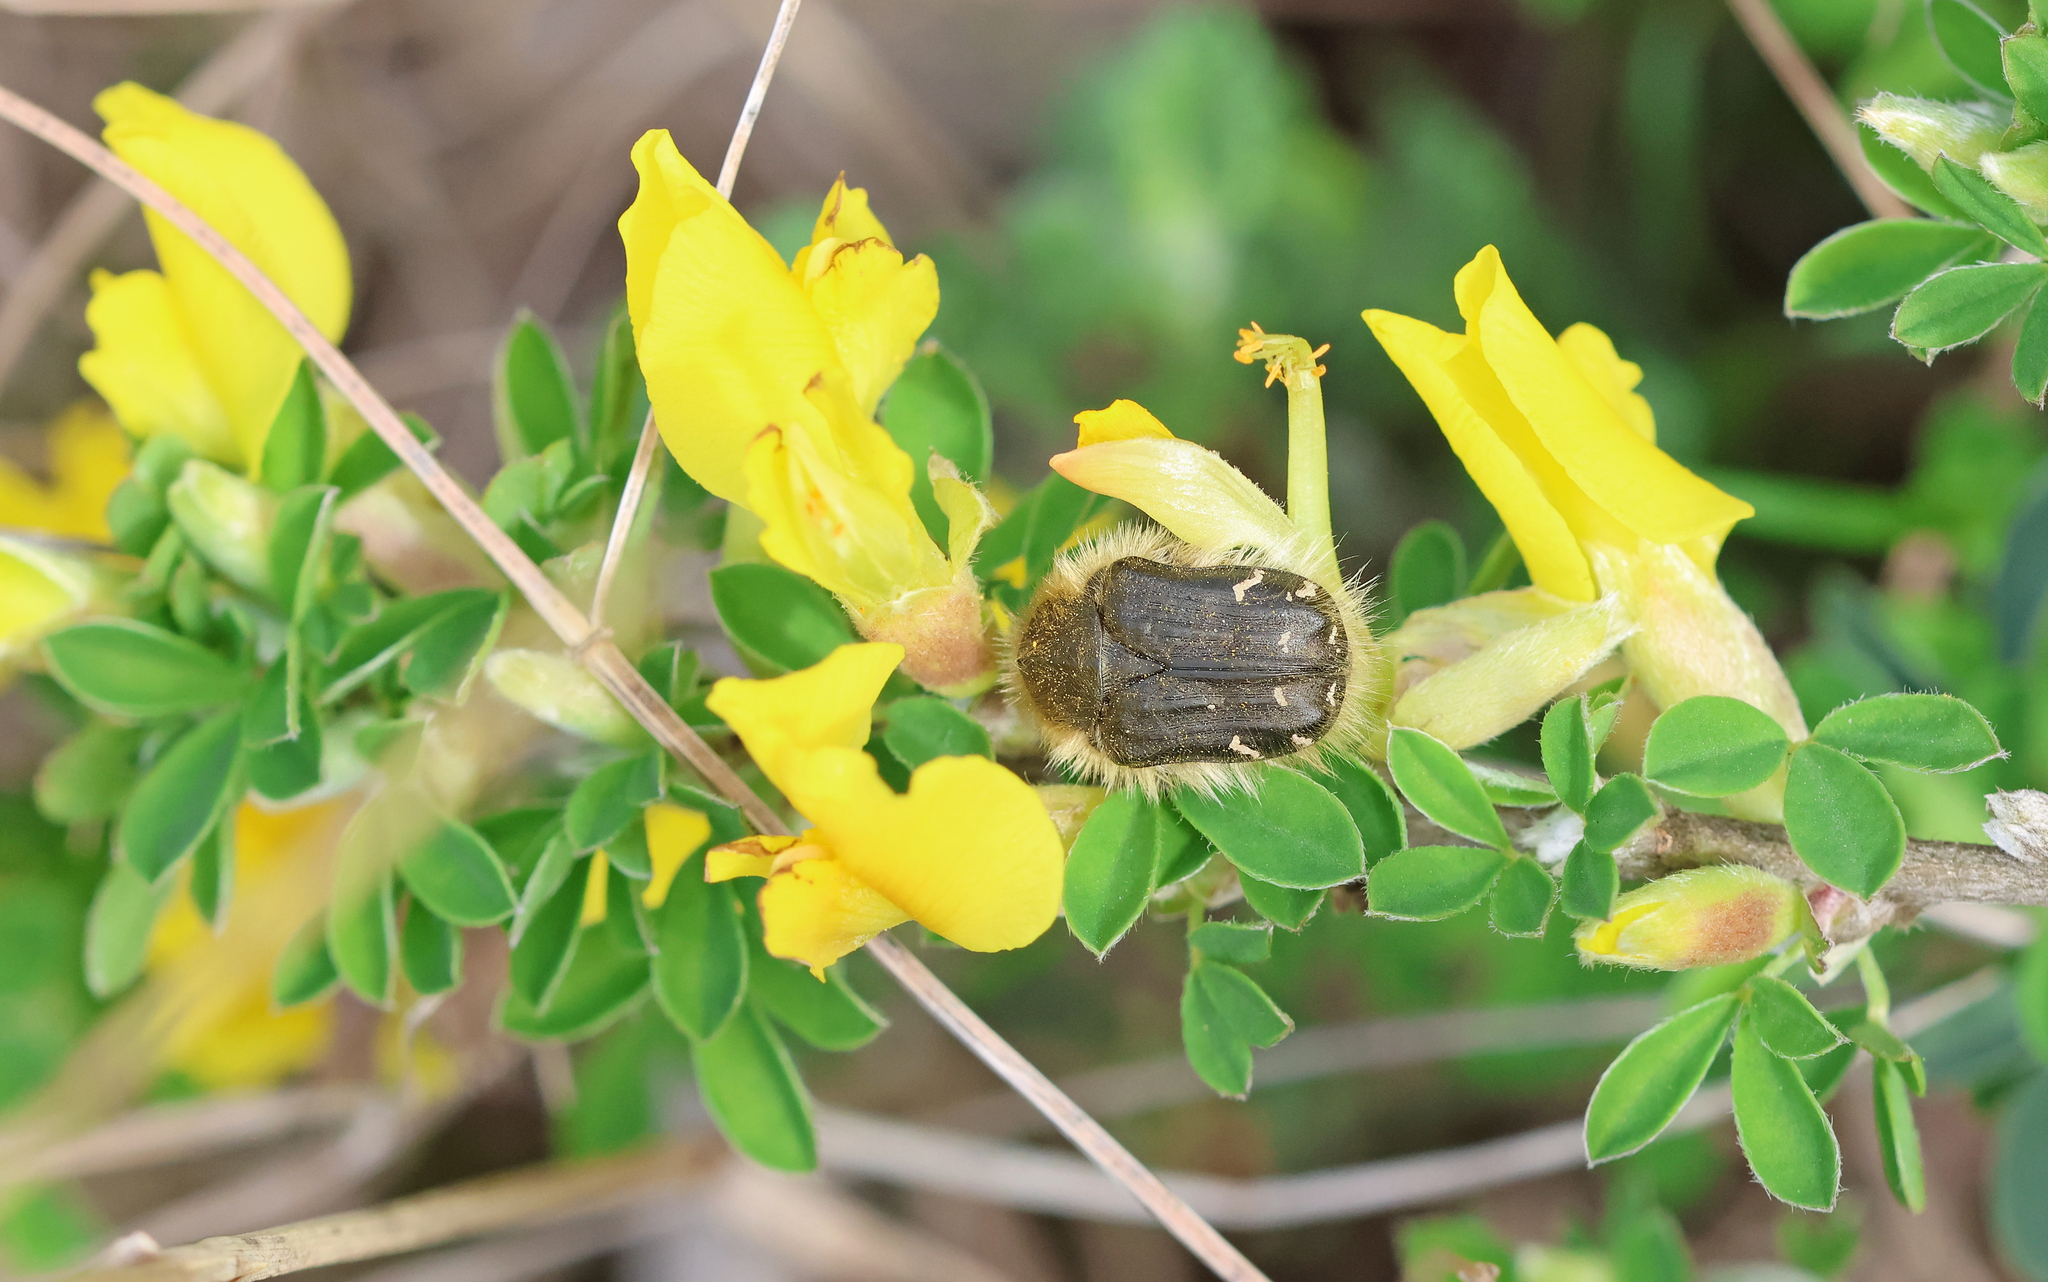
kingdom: Animalia
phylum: Arthropoda
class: Insecta
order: Coleoptera
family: Scarabaeidae
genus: Tropinota
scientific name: Tropinota hirta
